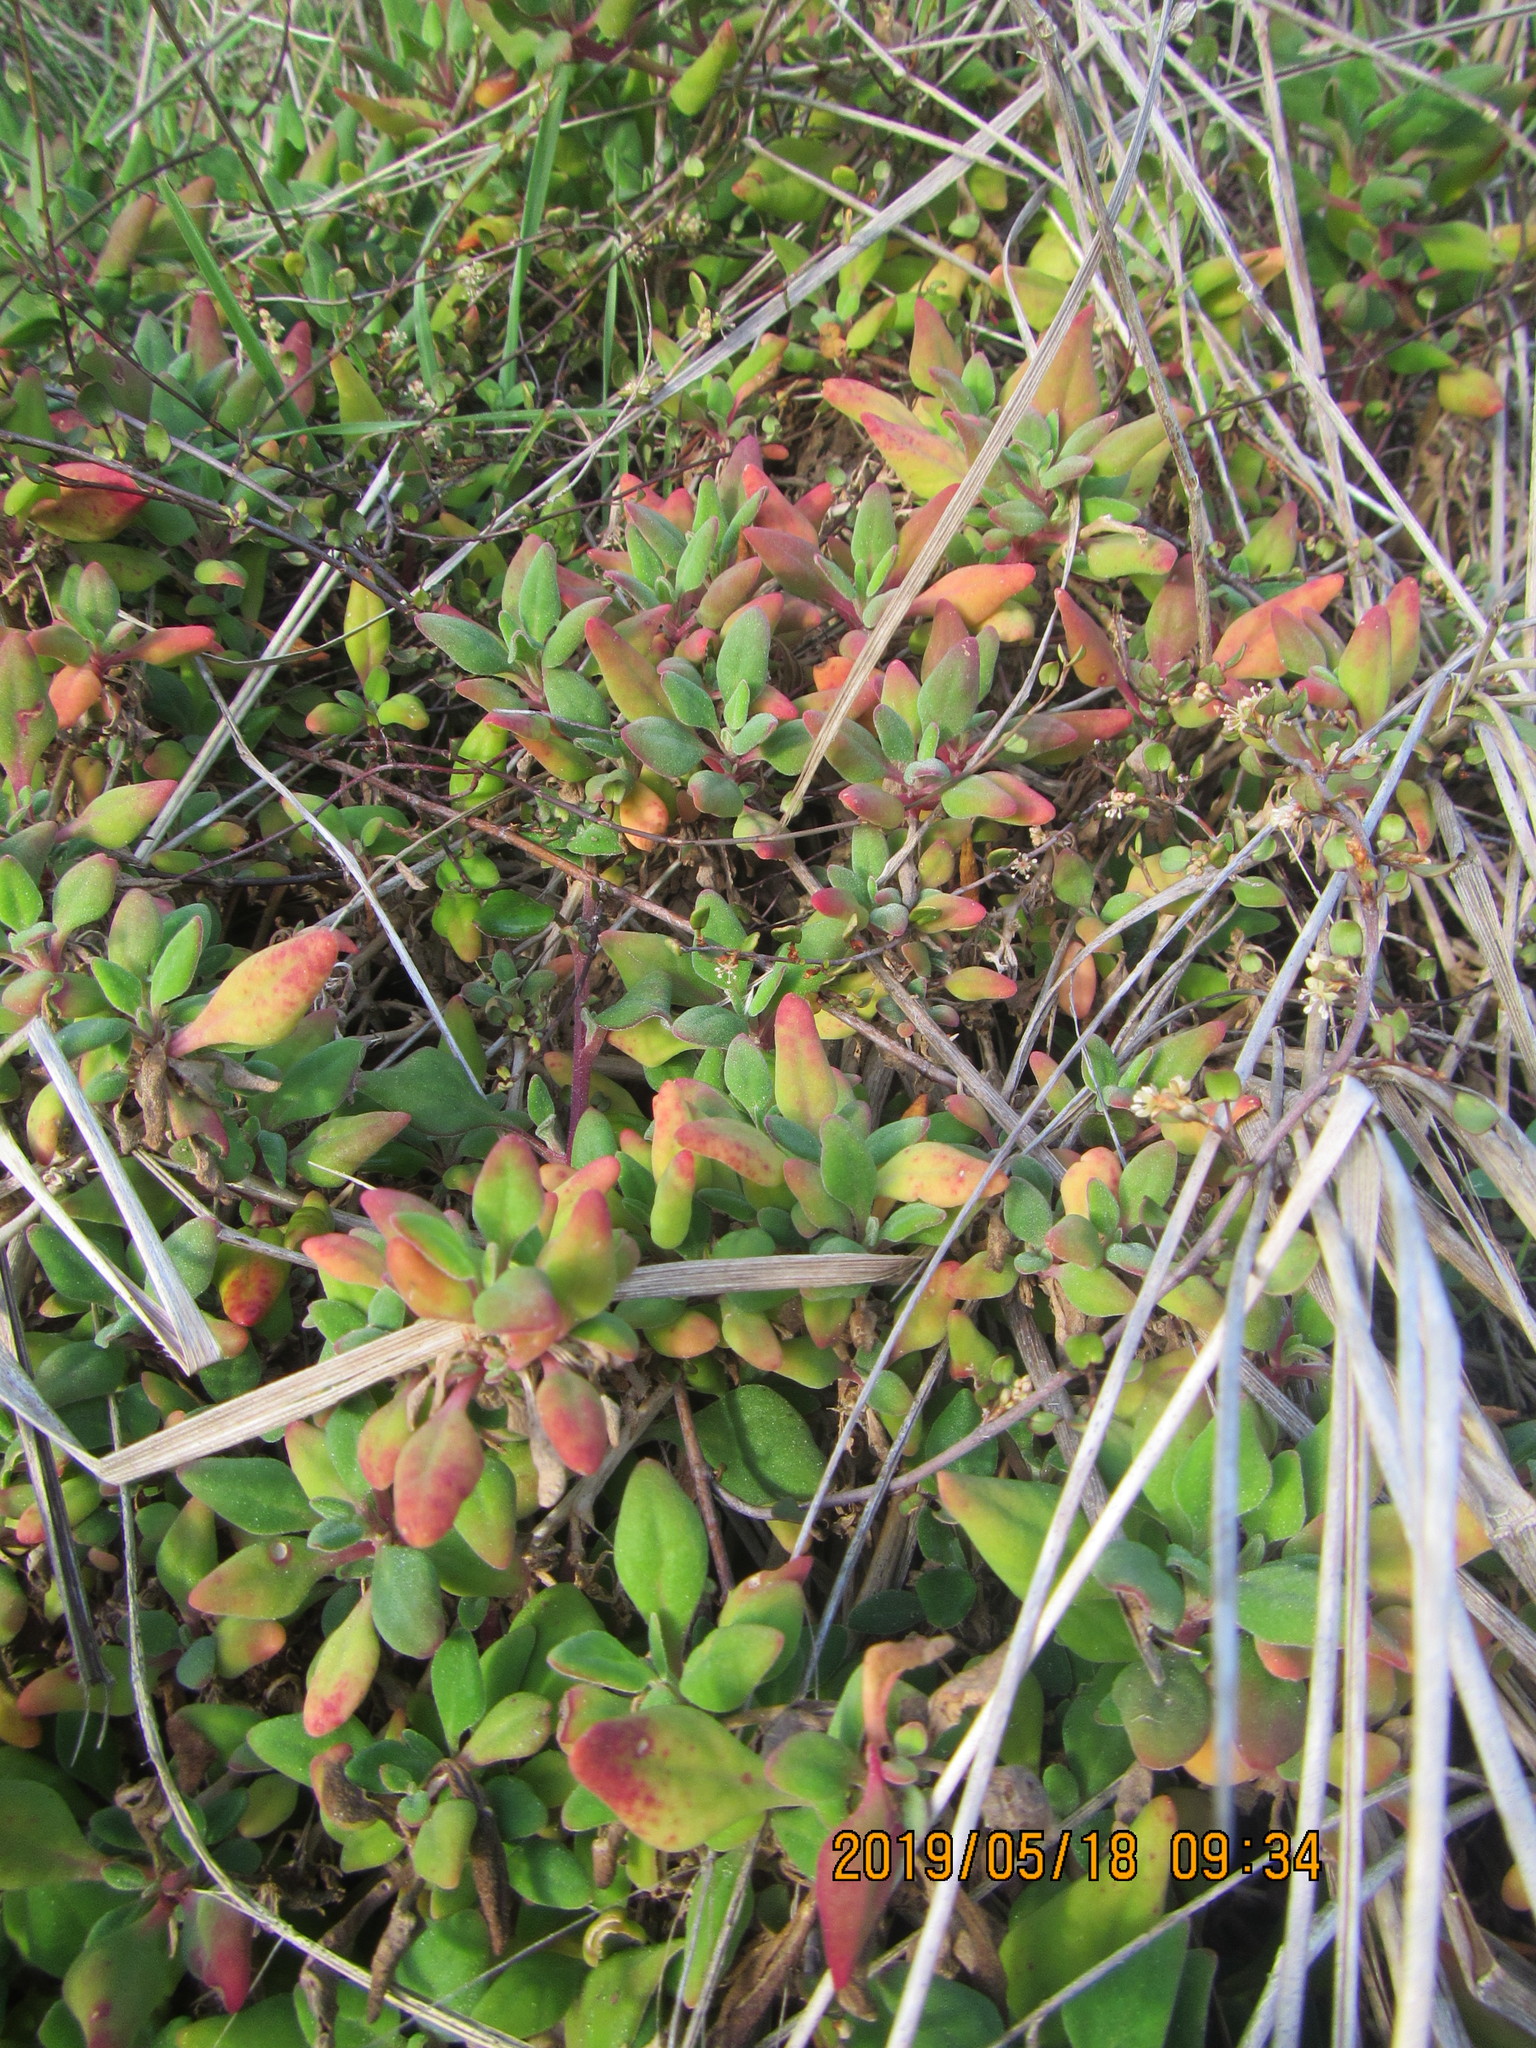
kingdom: Plantae
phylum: Tracheophyta
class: Magnoliopsida
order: Caryophyllales
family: Aizoaceae
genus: Tetragonia
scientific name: Tetragonia implexicoma
